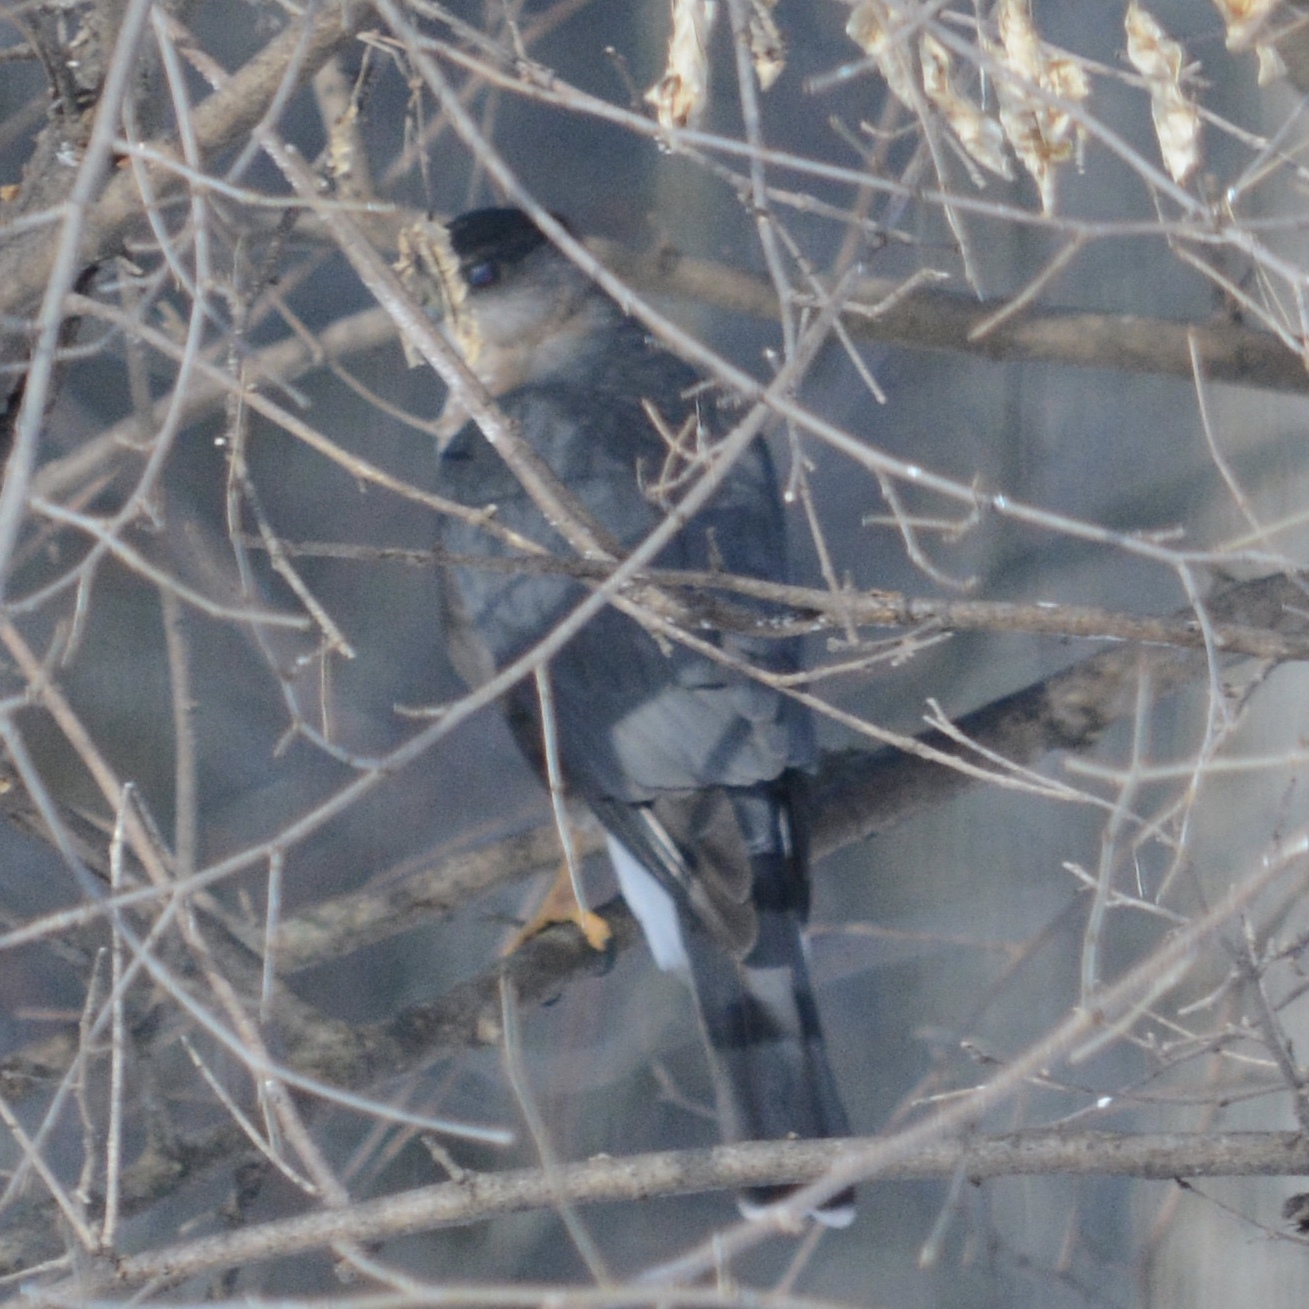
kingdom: Animalia
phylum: Chordata
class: Aves
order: Accipitriformes
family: Accipitridae
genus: Accipiter
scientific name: Accipiter cooperii
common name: Cooper's hawk
